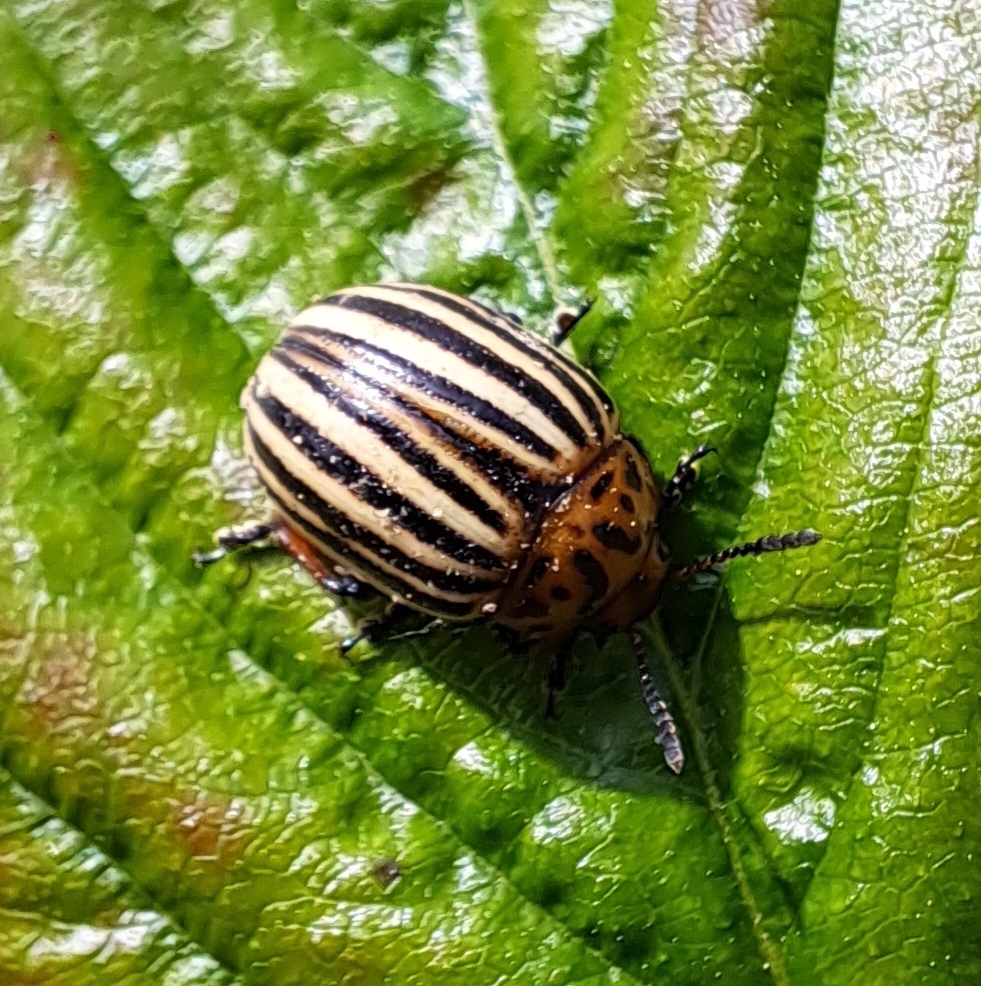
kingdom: Animalia
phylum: Arthropoda
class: Insecta
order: Coleoptera
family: Chrysomelidae
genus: Leptinotarsa
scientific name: Leptinotarsa decemlineata
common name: Colorado potato beetle
